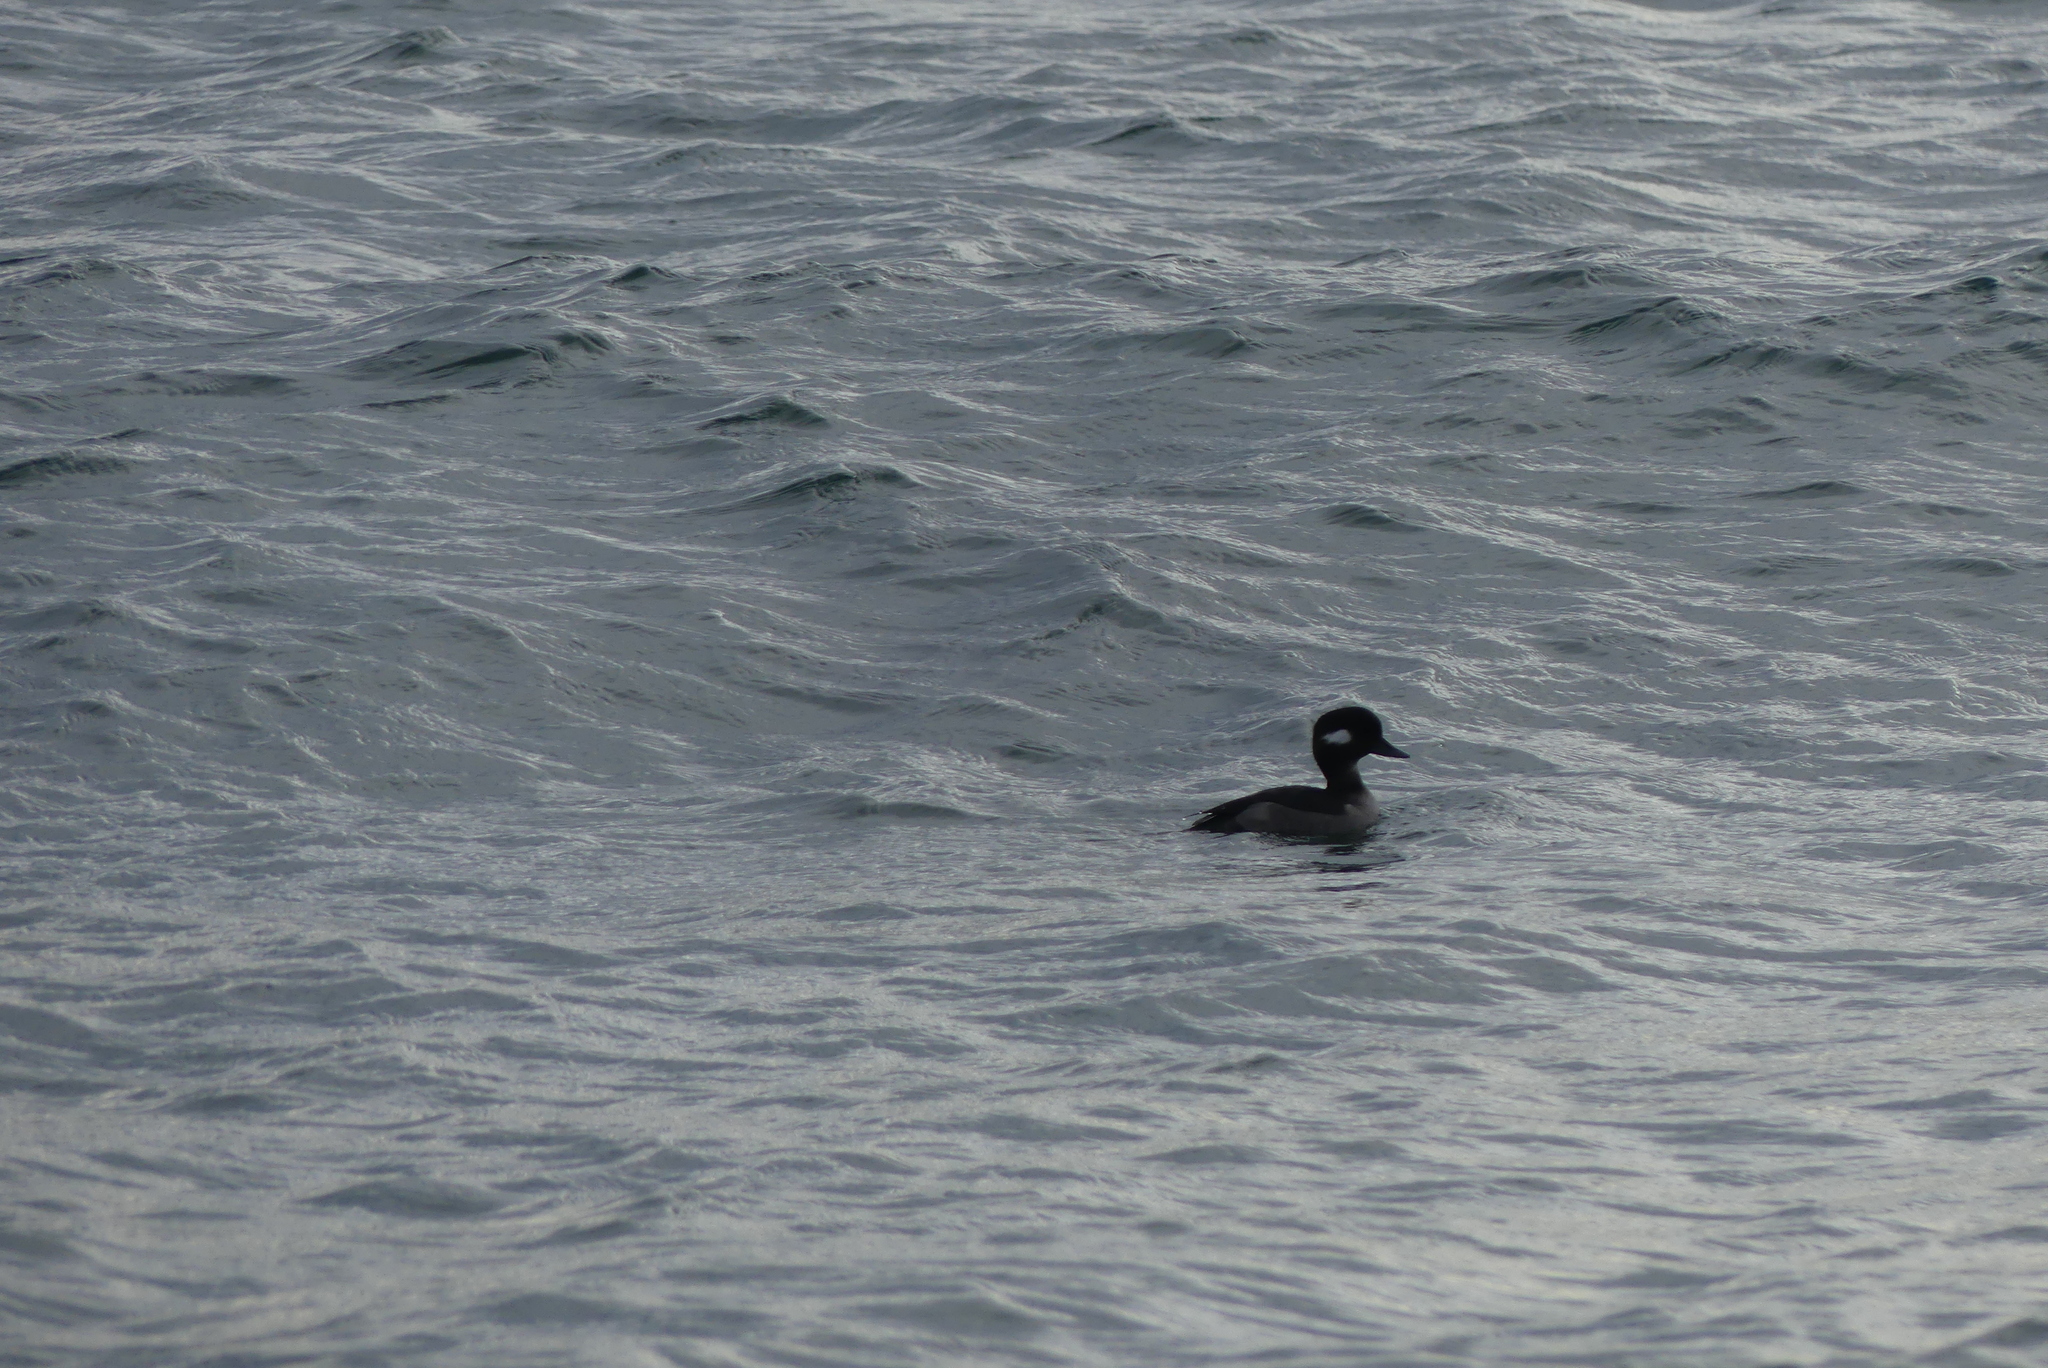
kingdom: Animalia
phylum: Chordata
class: Aves
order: Anseriformes
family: Anatidae
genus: Bucephala
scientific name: Bucephala albeola
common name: Bufflehead
